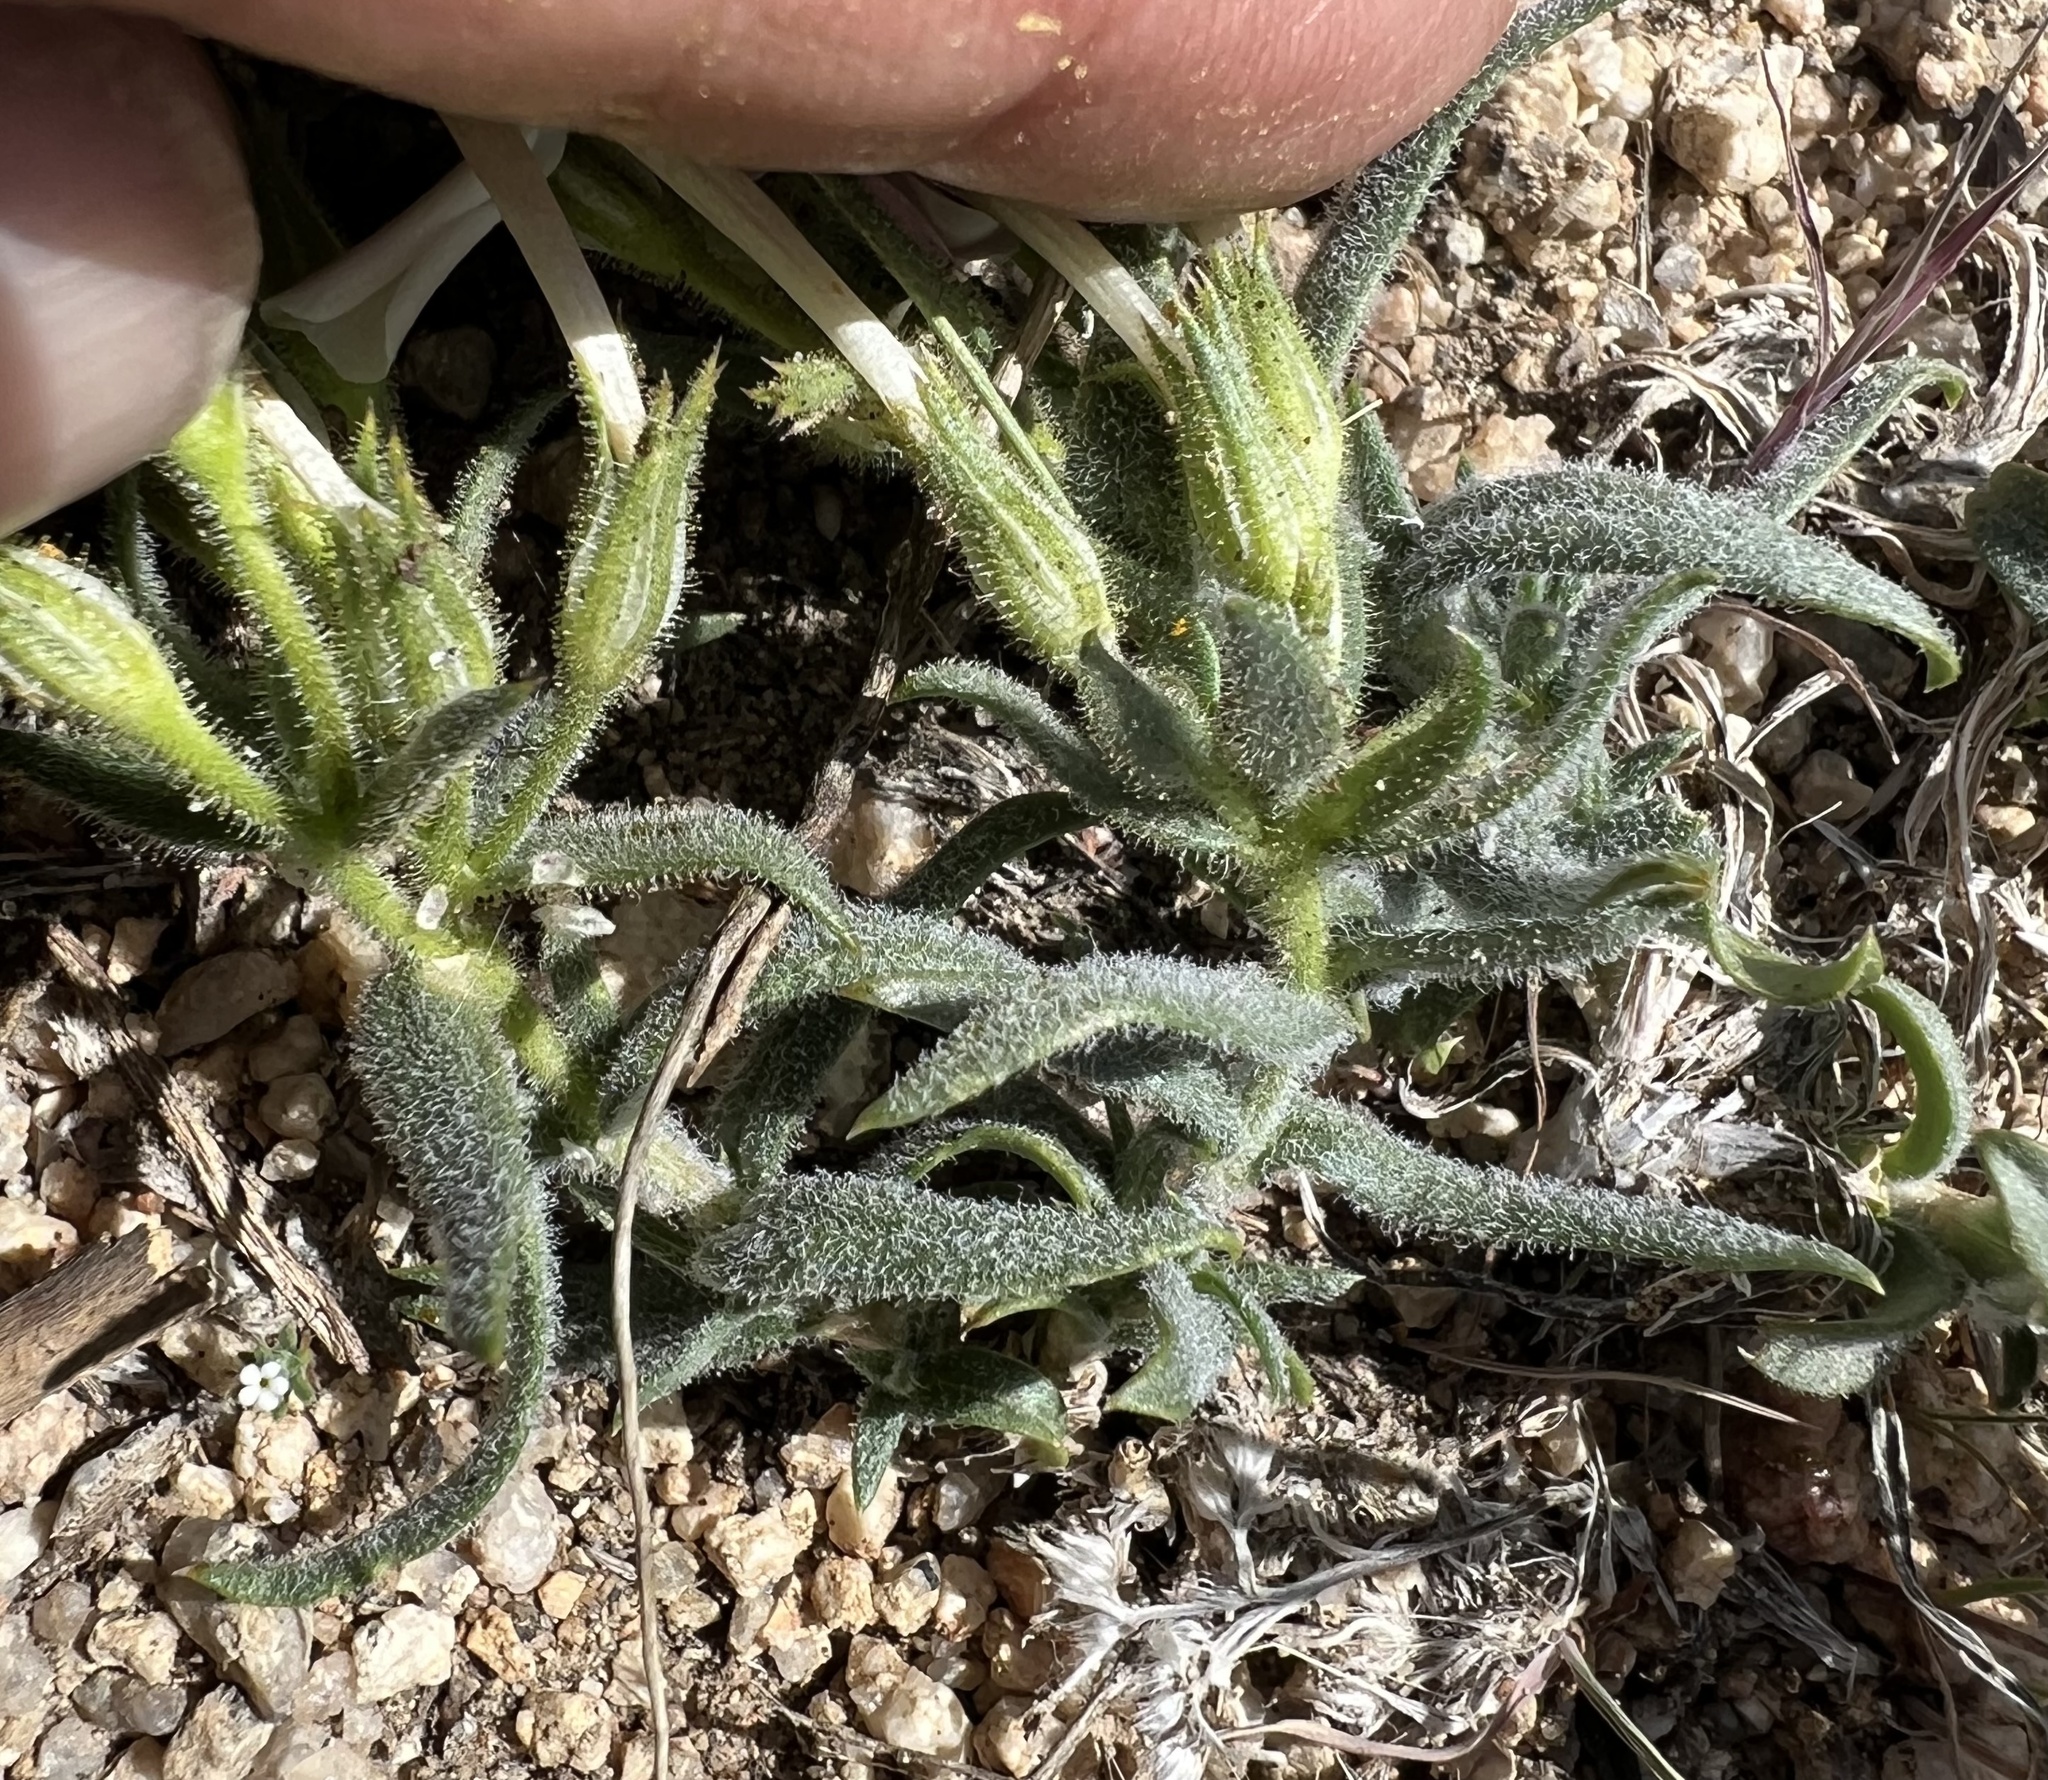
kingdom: Plantae
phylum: Tracheophyta
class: Magnoliopsida
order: Ericales
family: Polemoniaceae
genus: Phlox
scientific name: Phlox longifolia
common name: Longleaf phlox
